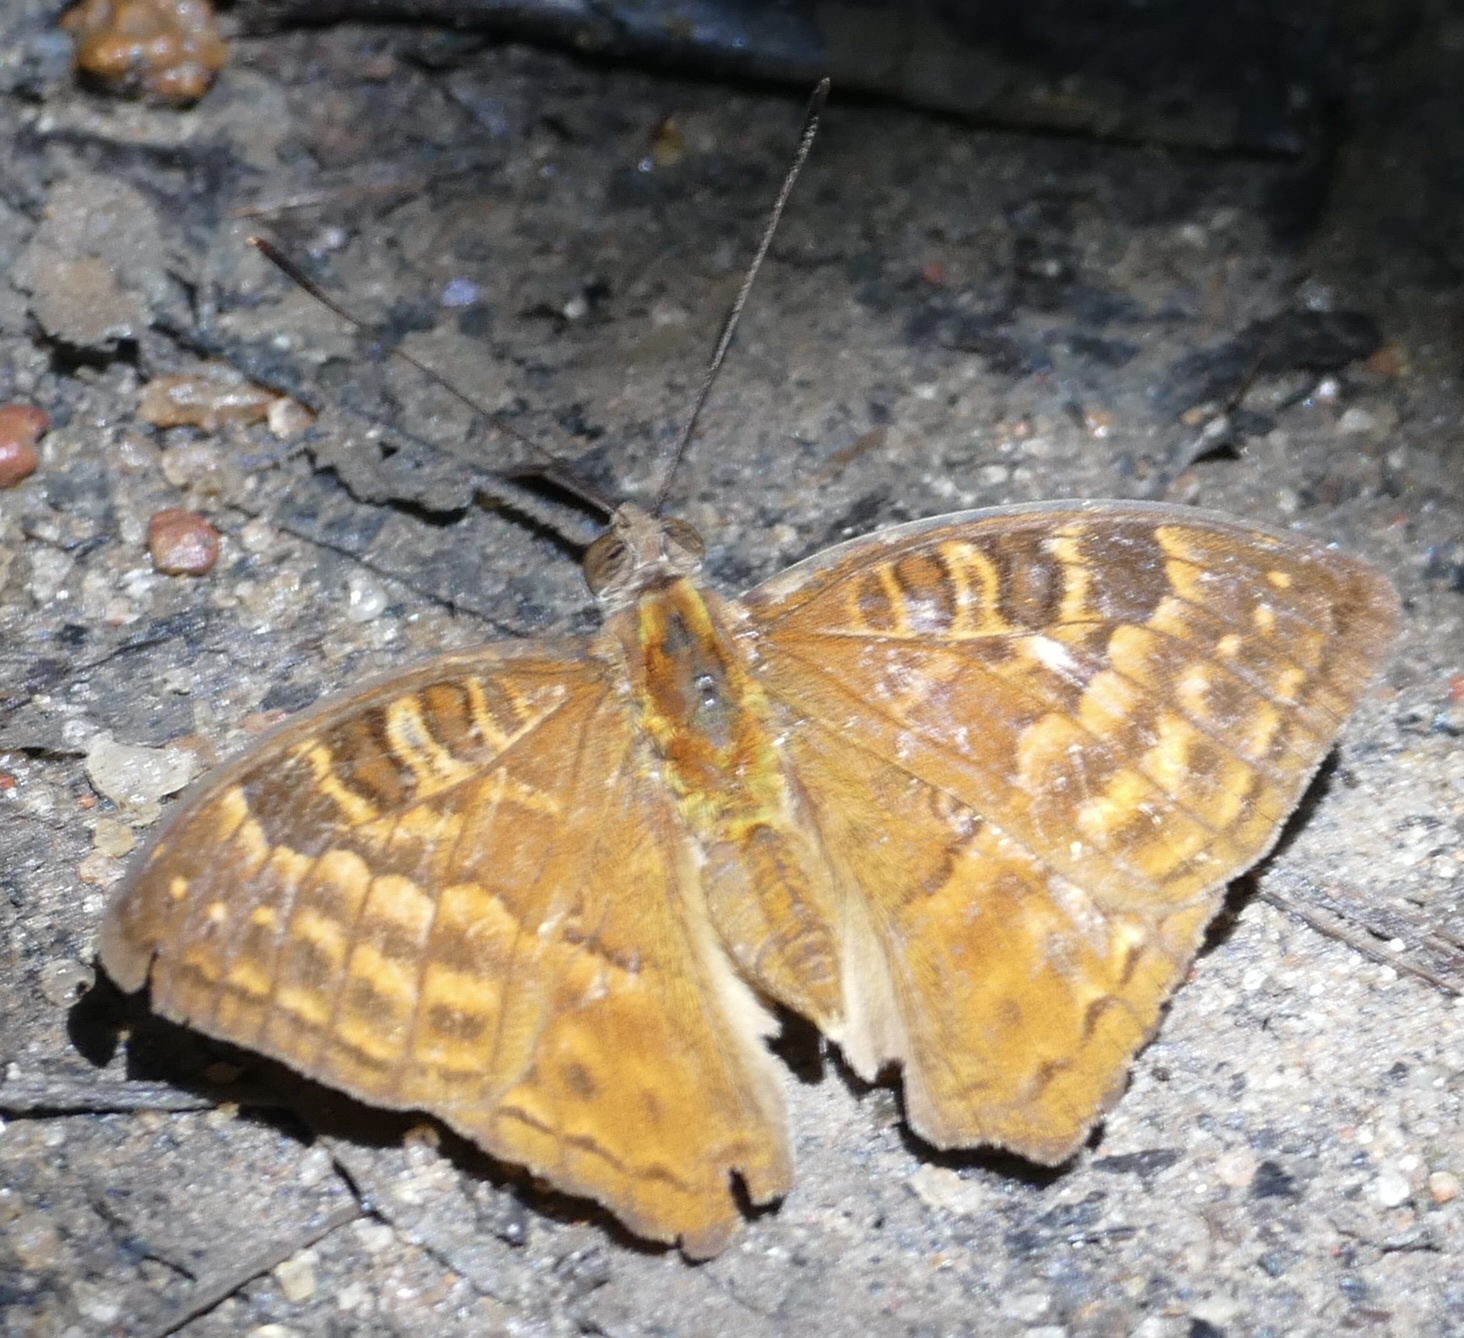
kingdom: Animalia
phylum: Arthropoda
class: Insecta
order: Lepidoptera
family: Nymphalidae
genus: Euriphene
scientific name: Euriphene gambiae
